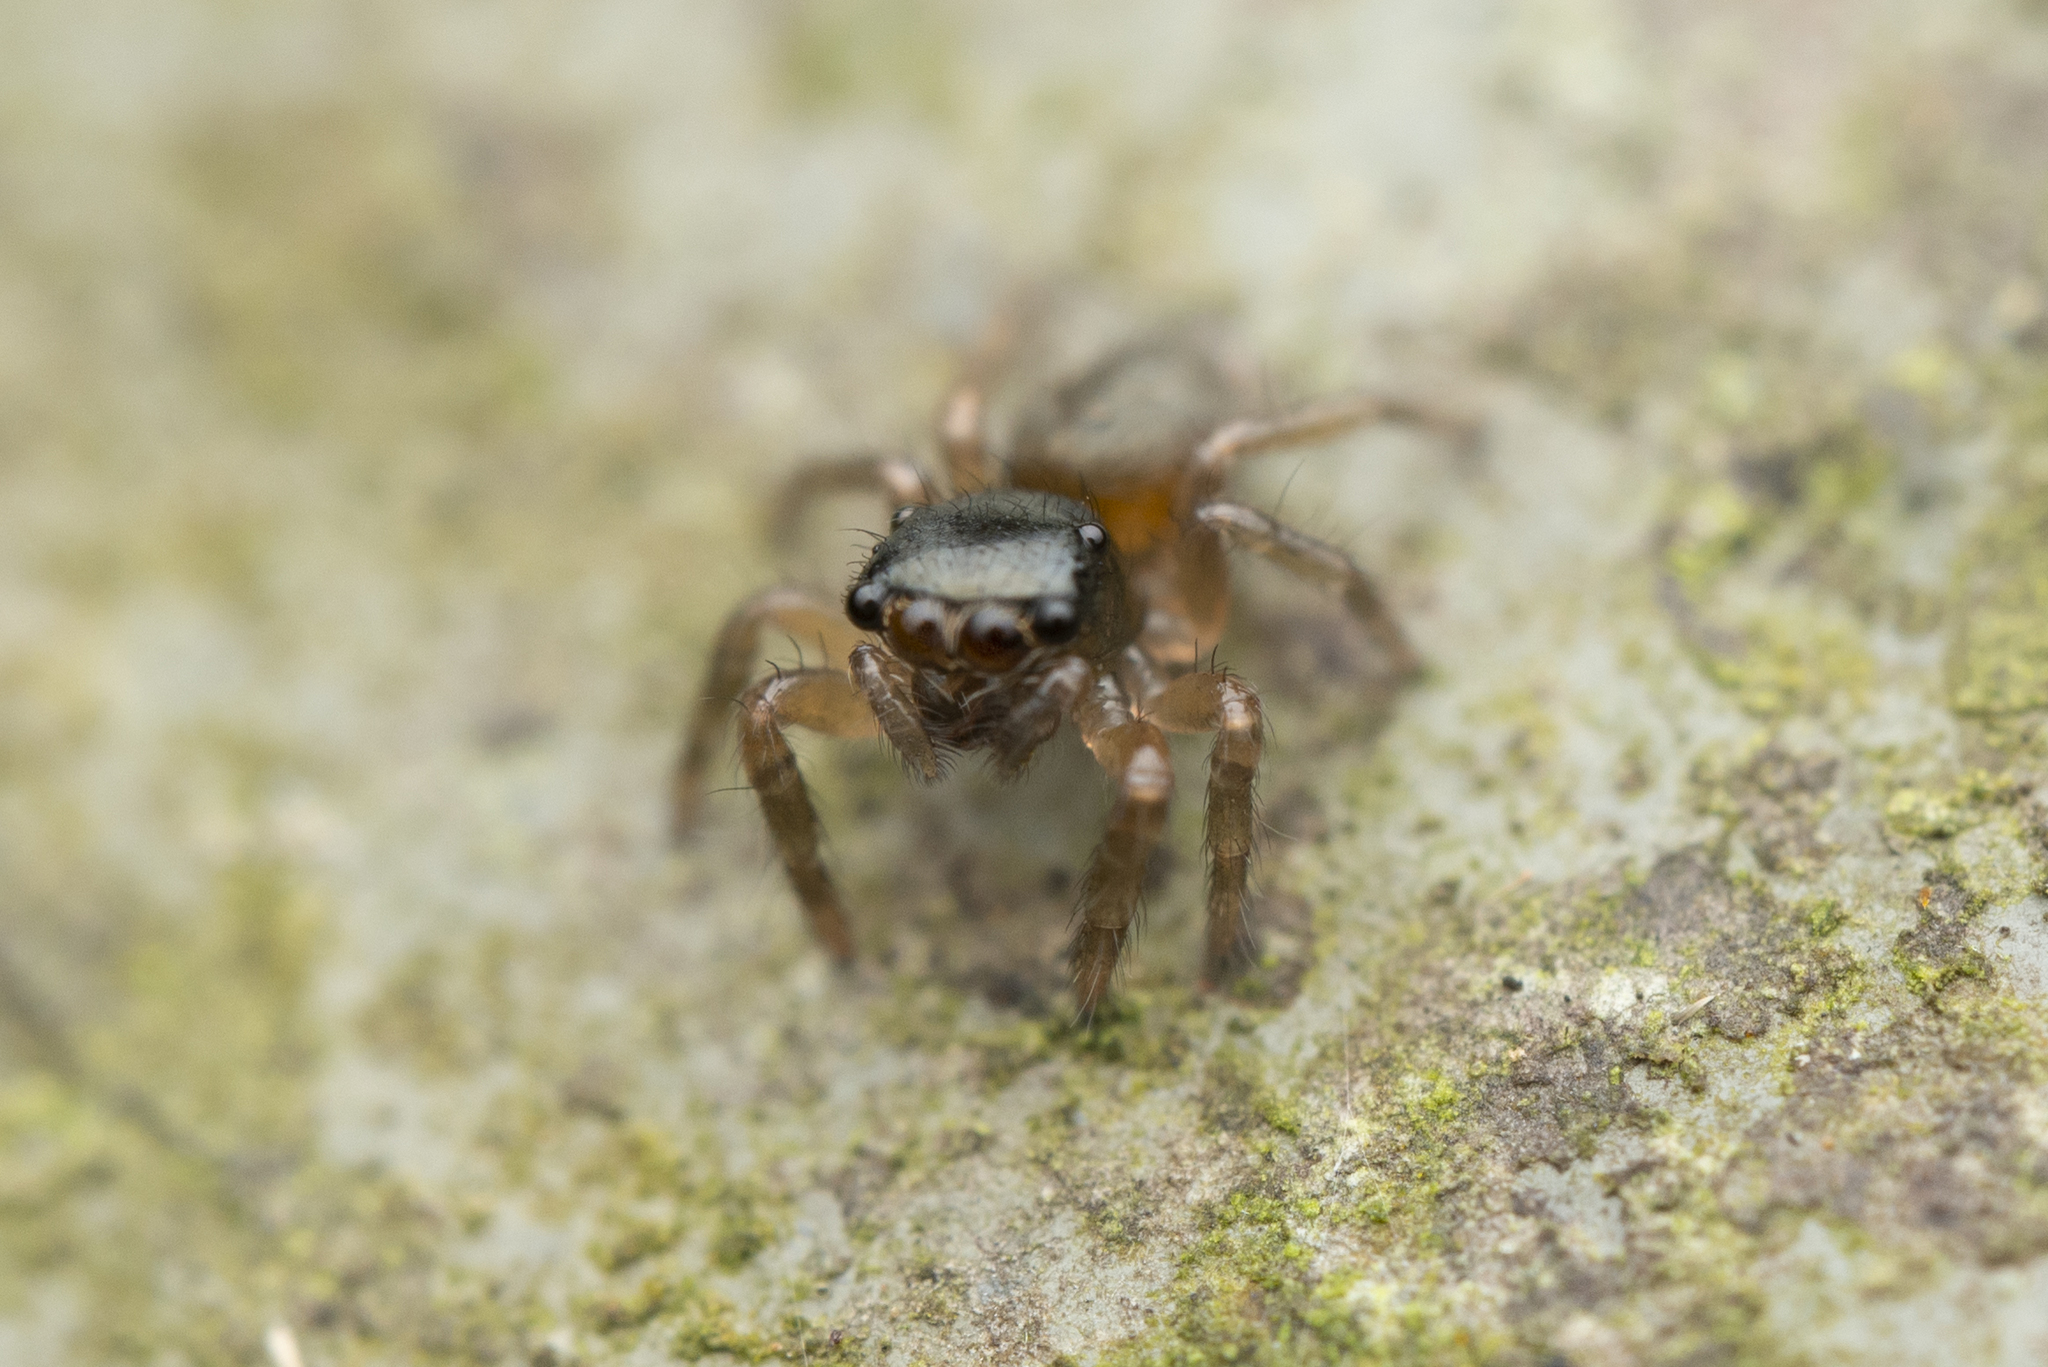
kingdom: Animalia
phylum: Arthropoda
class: Arachnida
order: Araneae
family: Salticidae
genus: Orcevia
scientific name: Orcevia proszynskii
